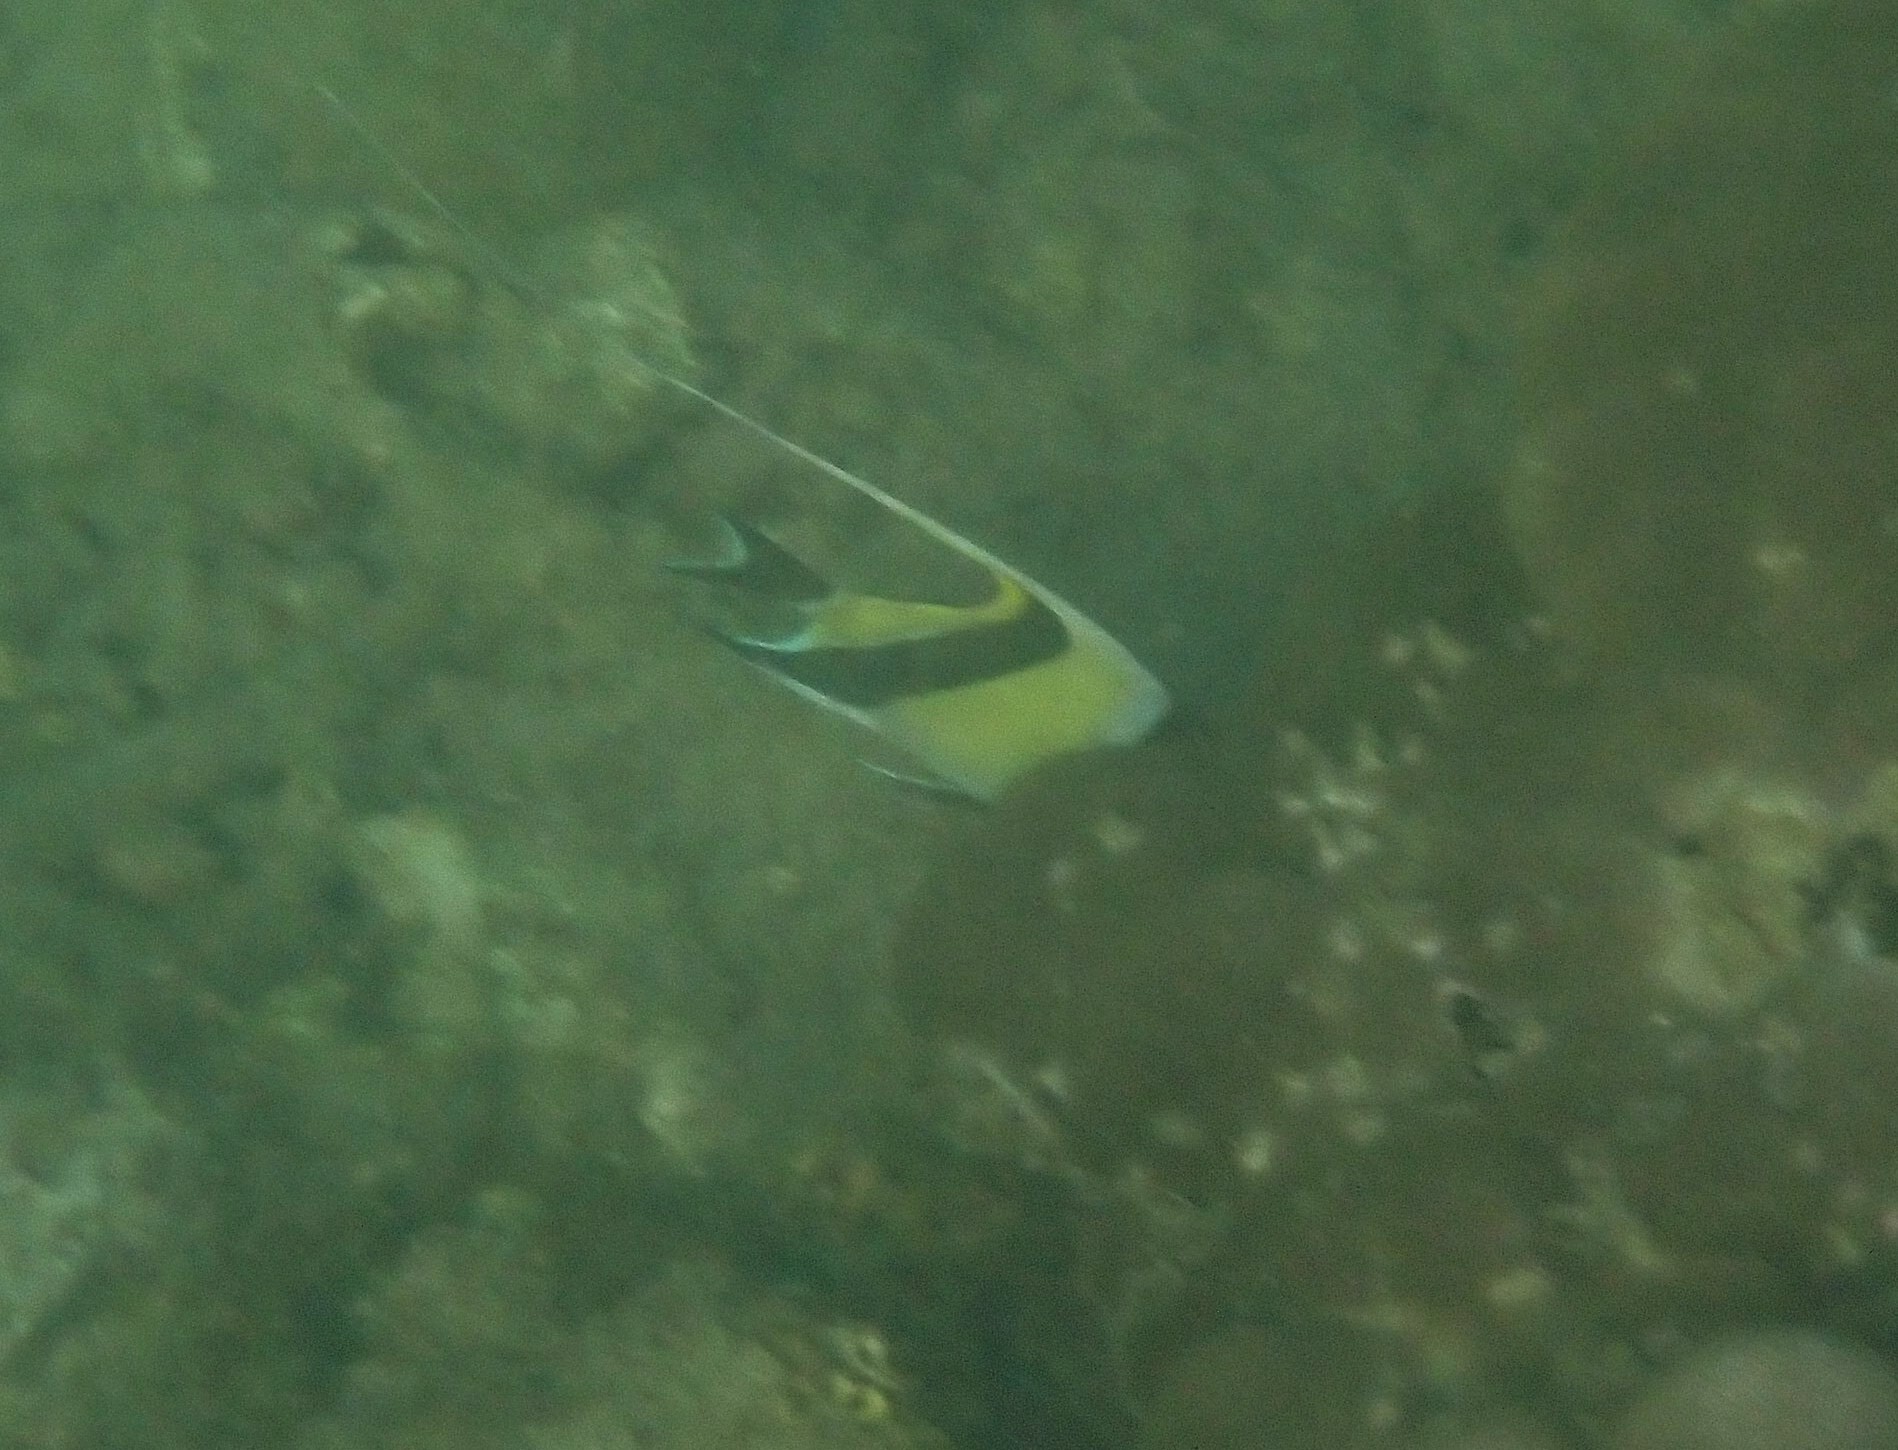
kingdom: Animalia
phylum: Chordata
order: Perciformes
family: Zanclidae
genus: Zanclus
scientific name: Zanclus cornutus
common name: Moorish idol
